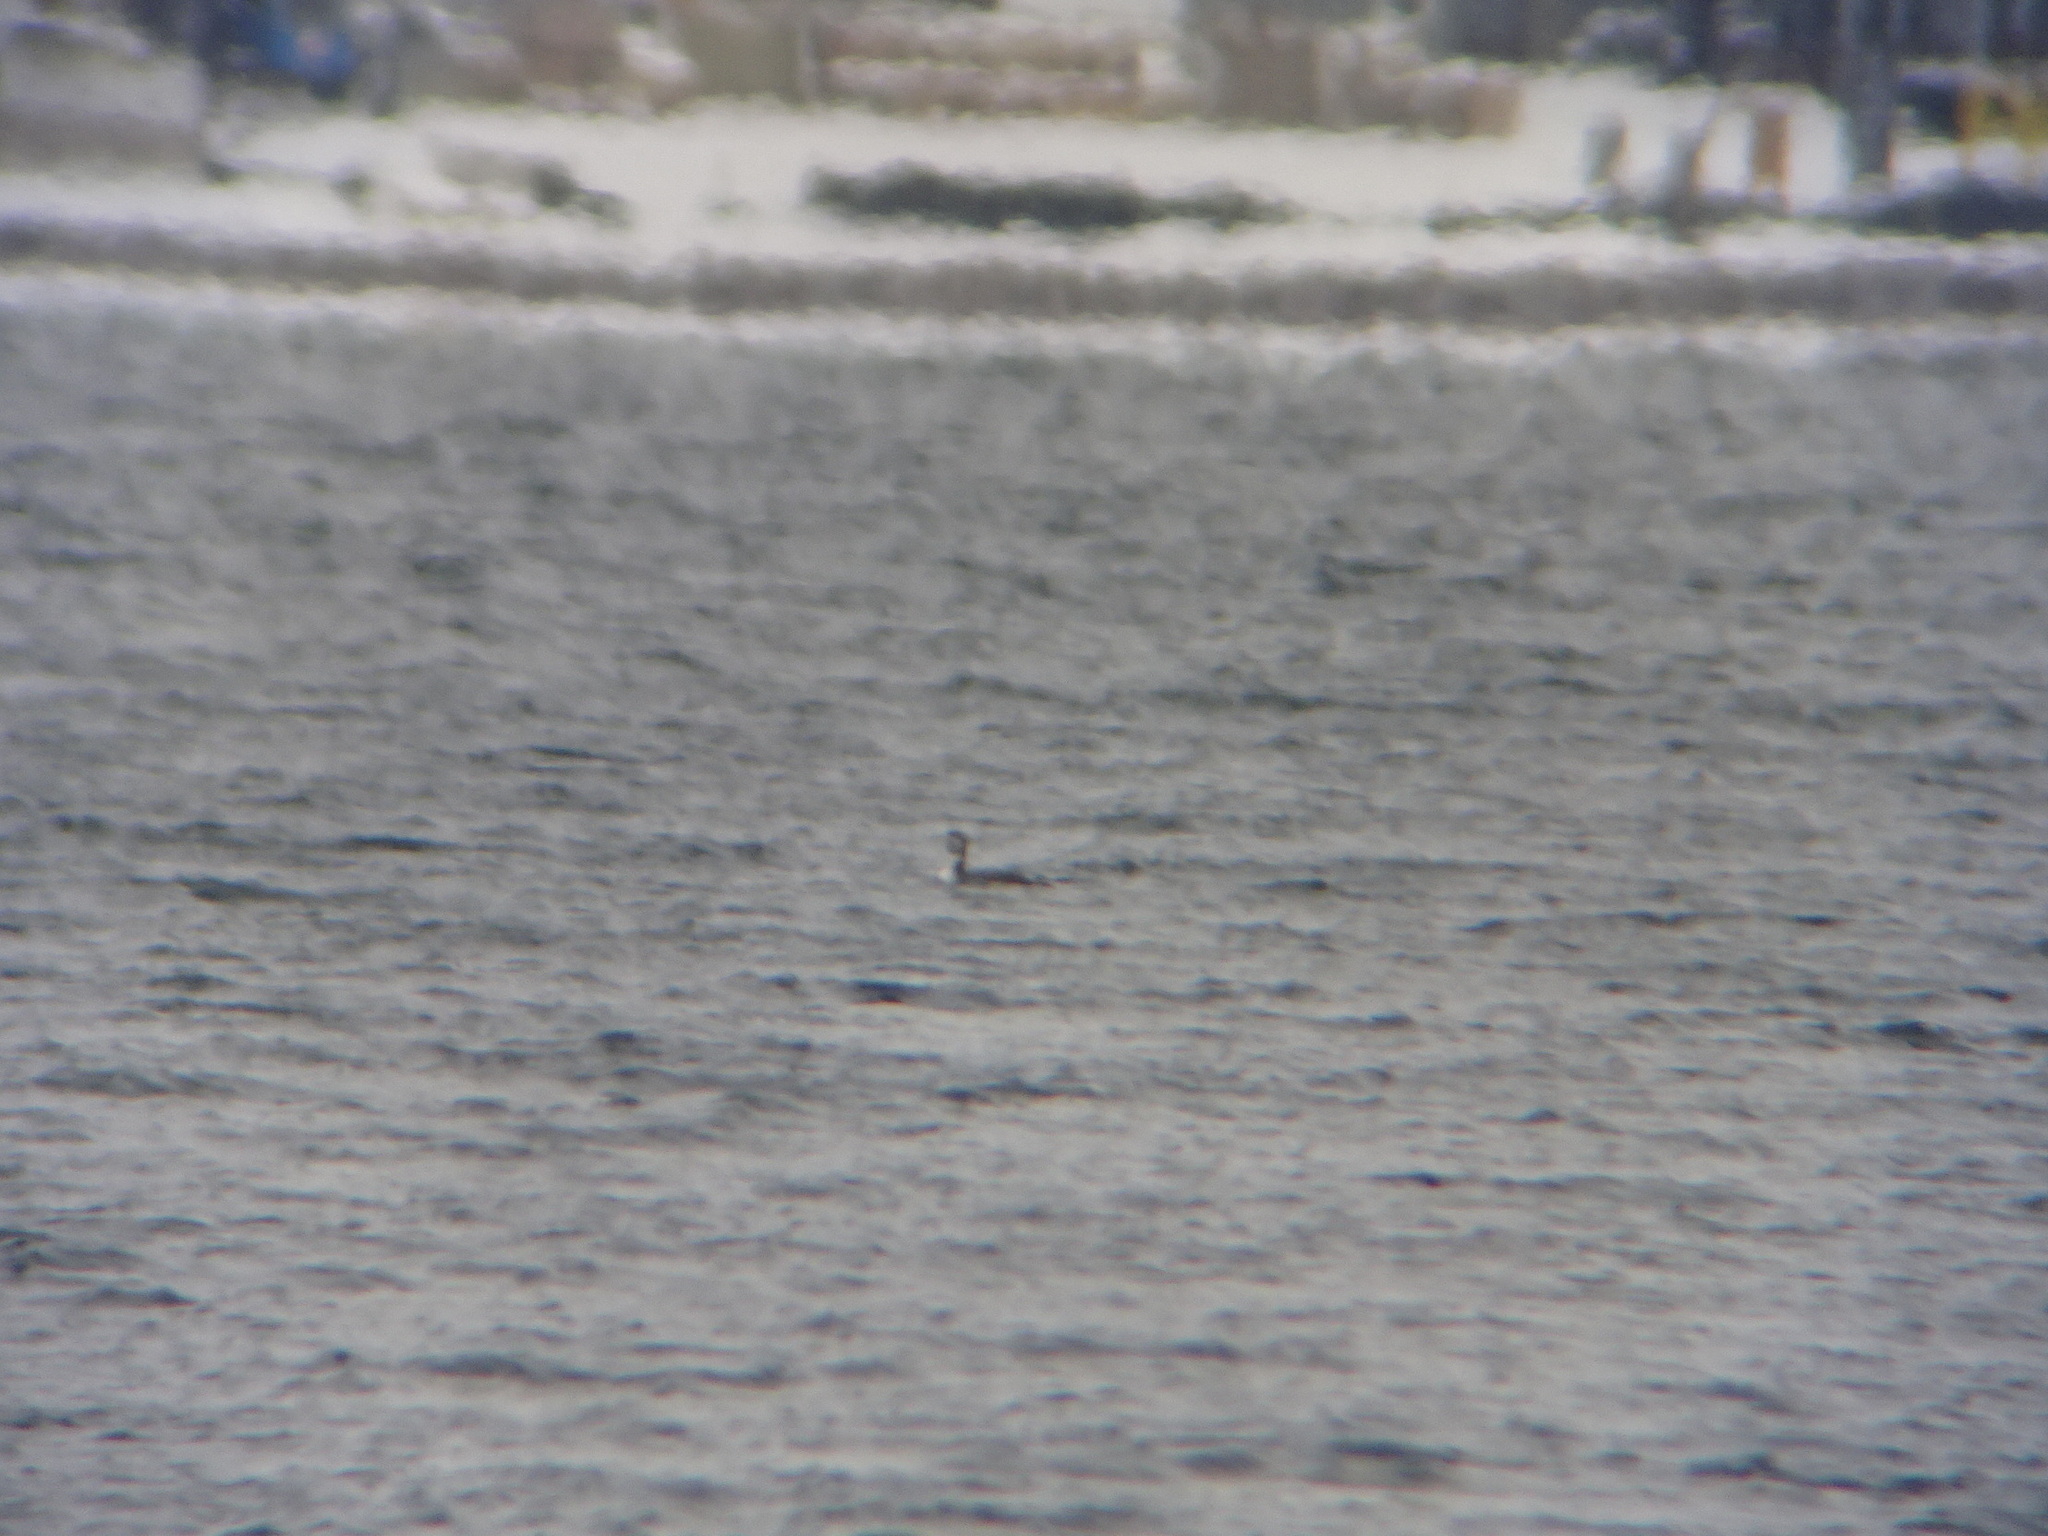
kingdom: Animalia
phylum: Chordata
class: Aves
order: Gaviiformes
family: Gaviidae
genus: Gavia
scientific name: Gavia immer
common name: Common loon
